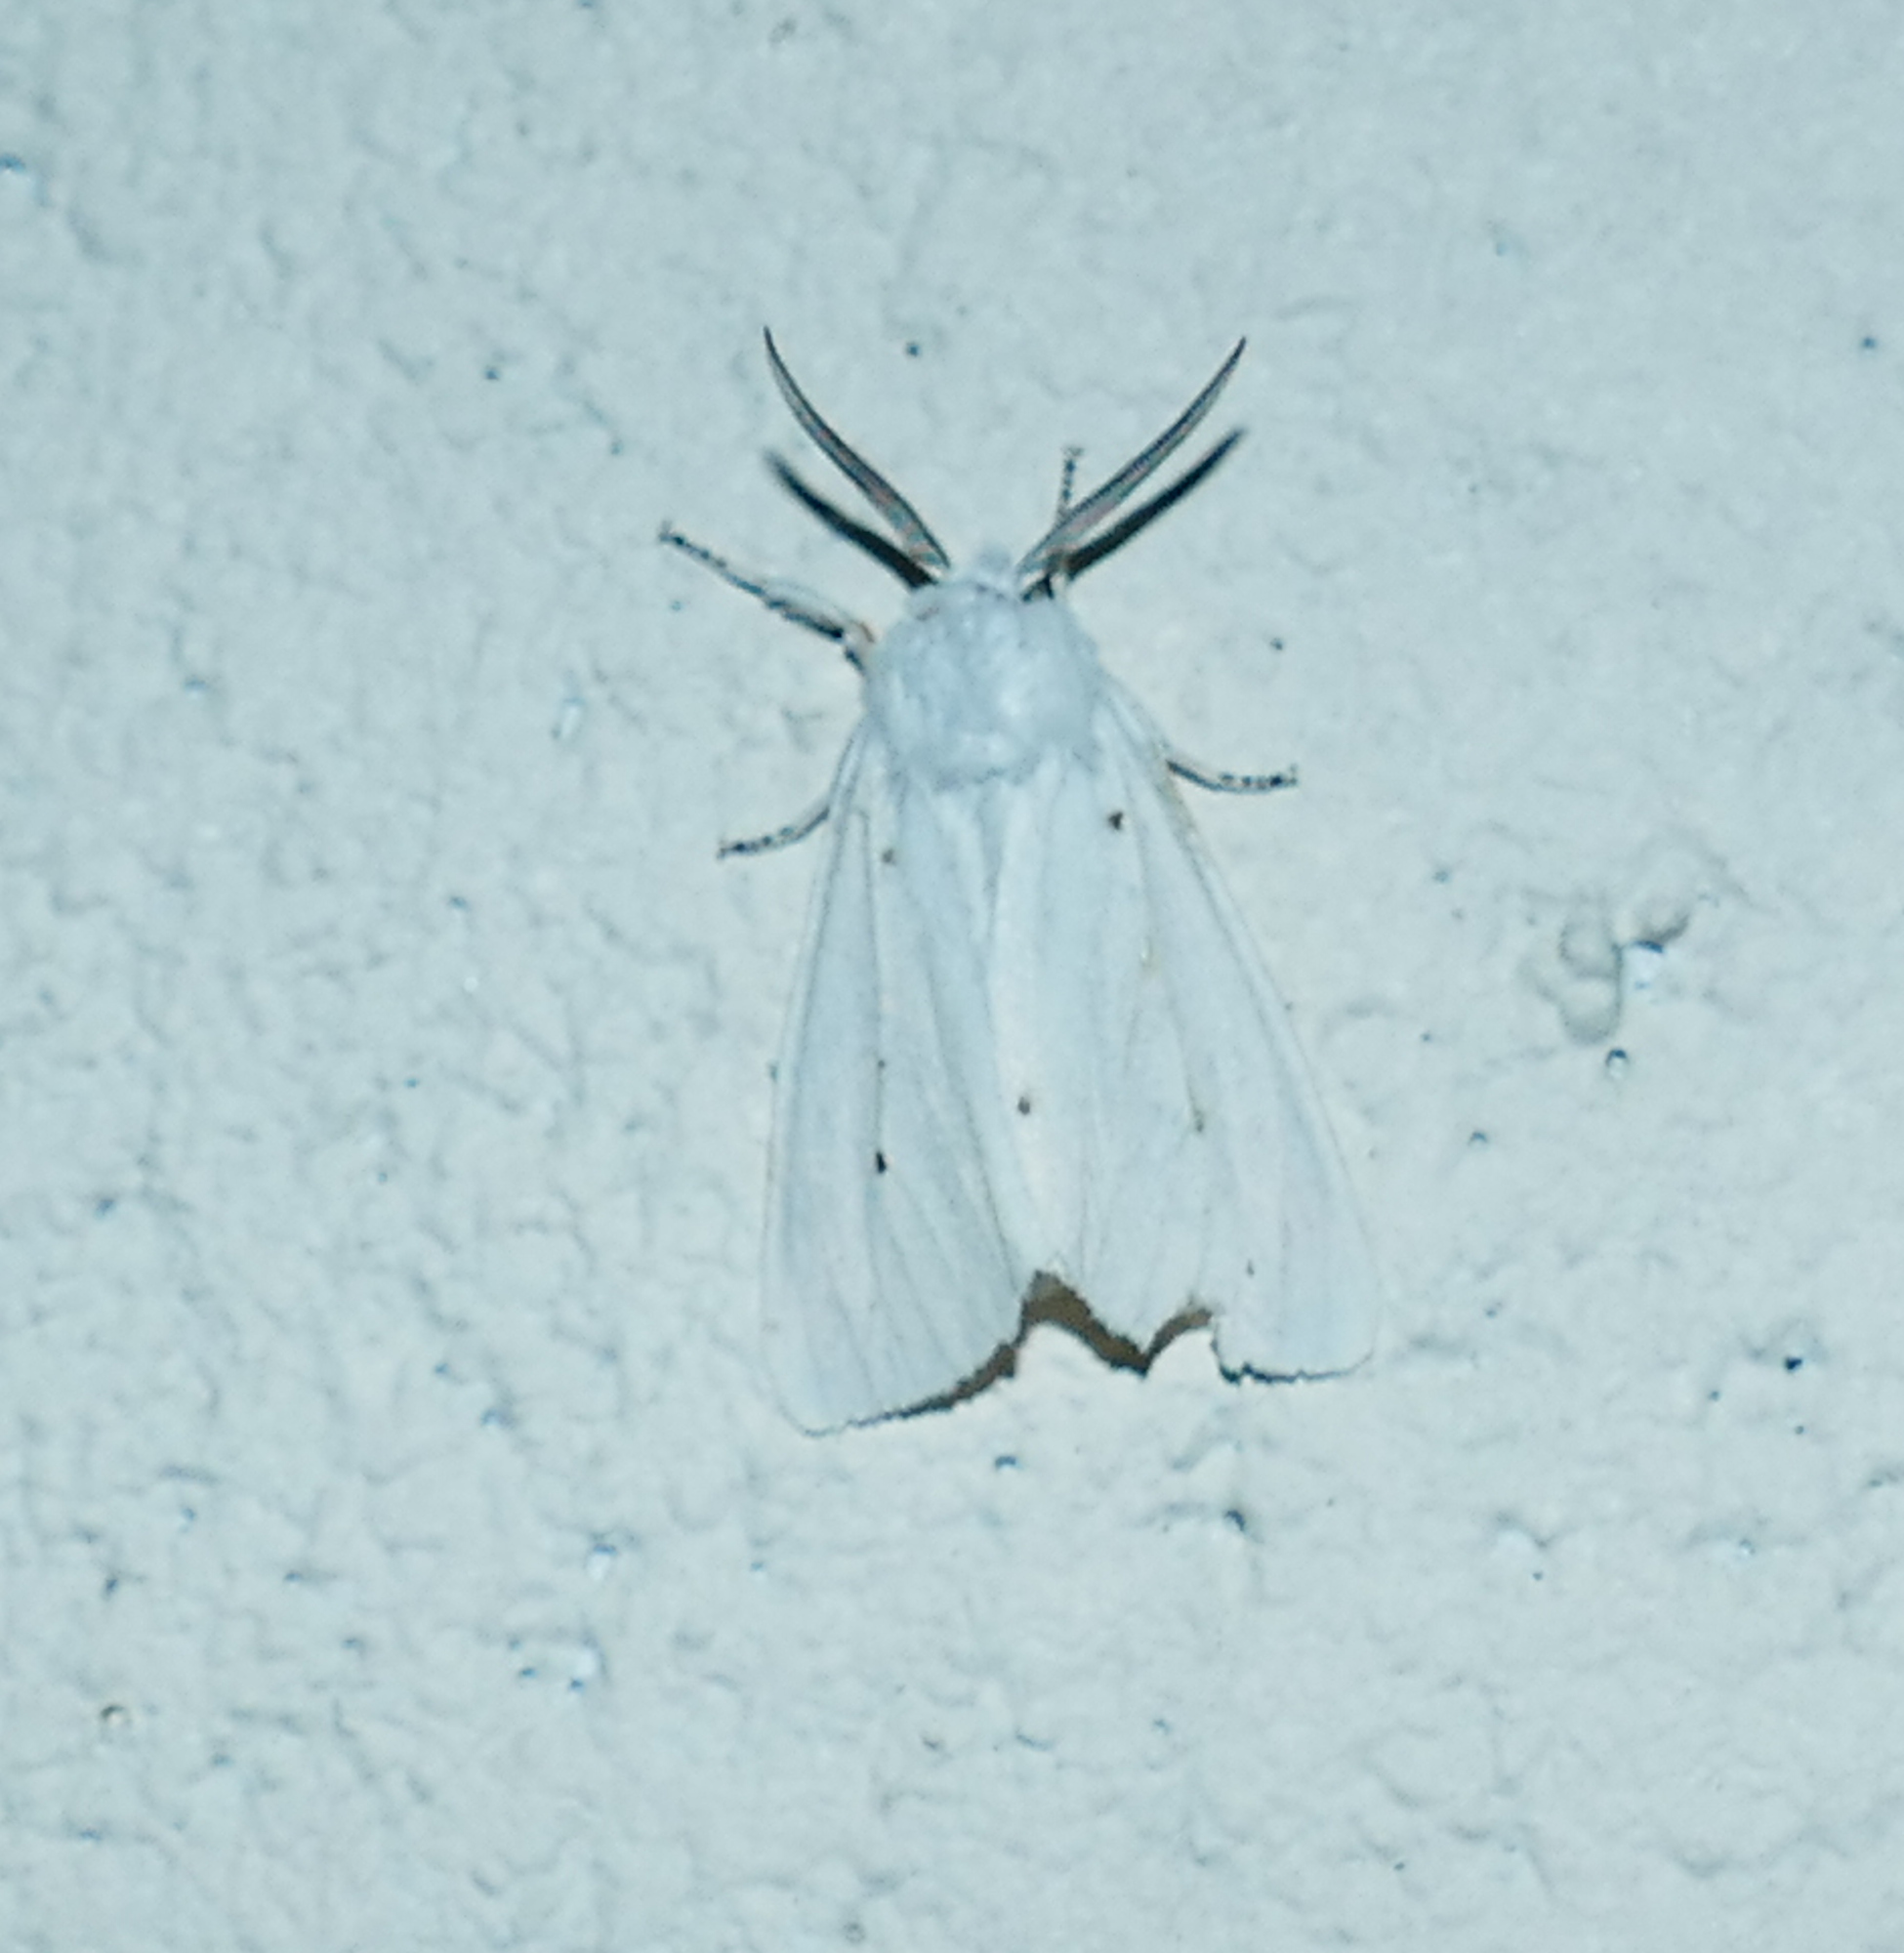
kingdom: Animalia
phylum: Arthropoda
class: Insecta
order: Lepidoptera
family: Erebidae
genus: Hyphantria
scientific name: Hyphantria cunea
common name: American white moth
